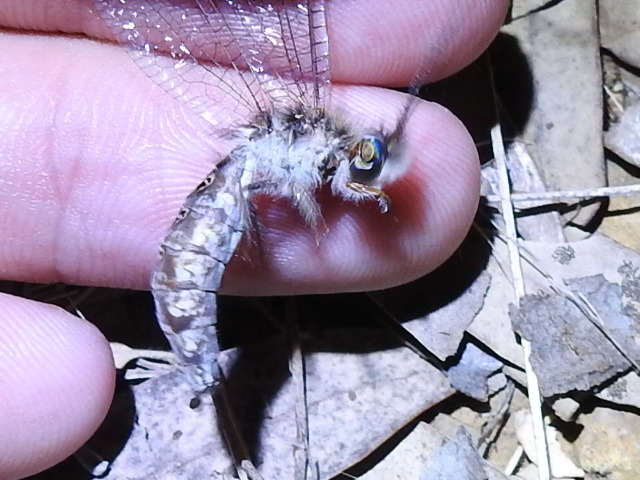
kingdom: Animalia
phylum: Arthropoda
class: Insecta
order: Neuroptera
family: Ascalaphidae
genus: Ululodes
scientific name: Ululodes macleayanus
